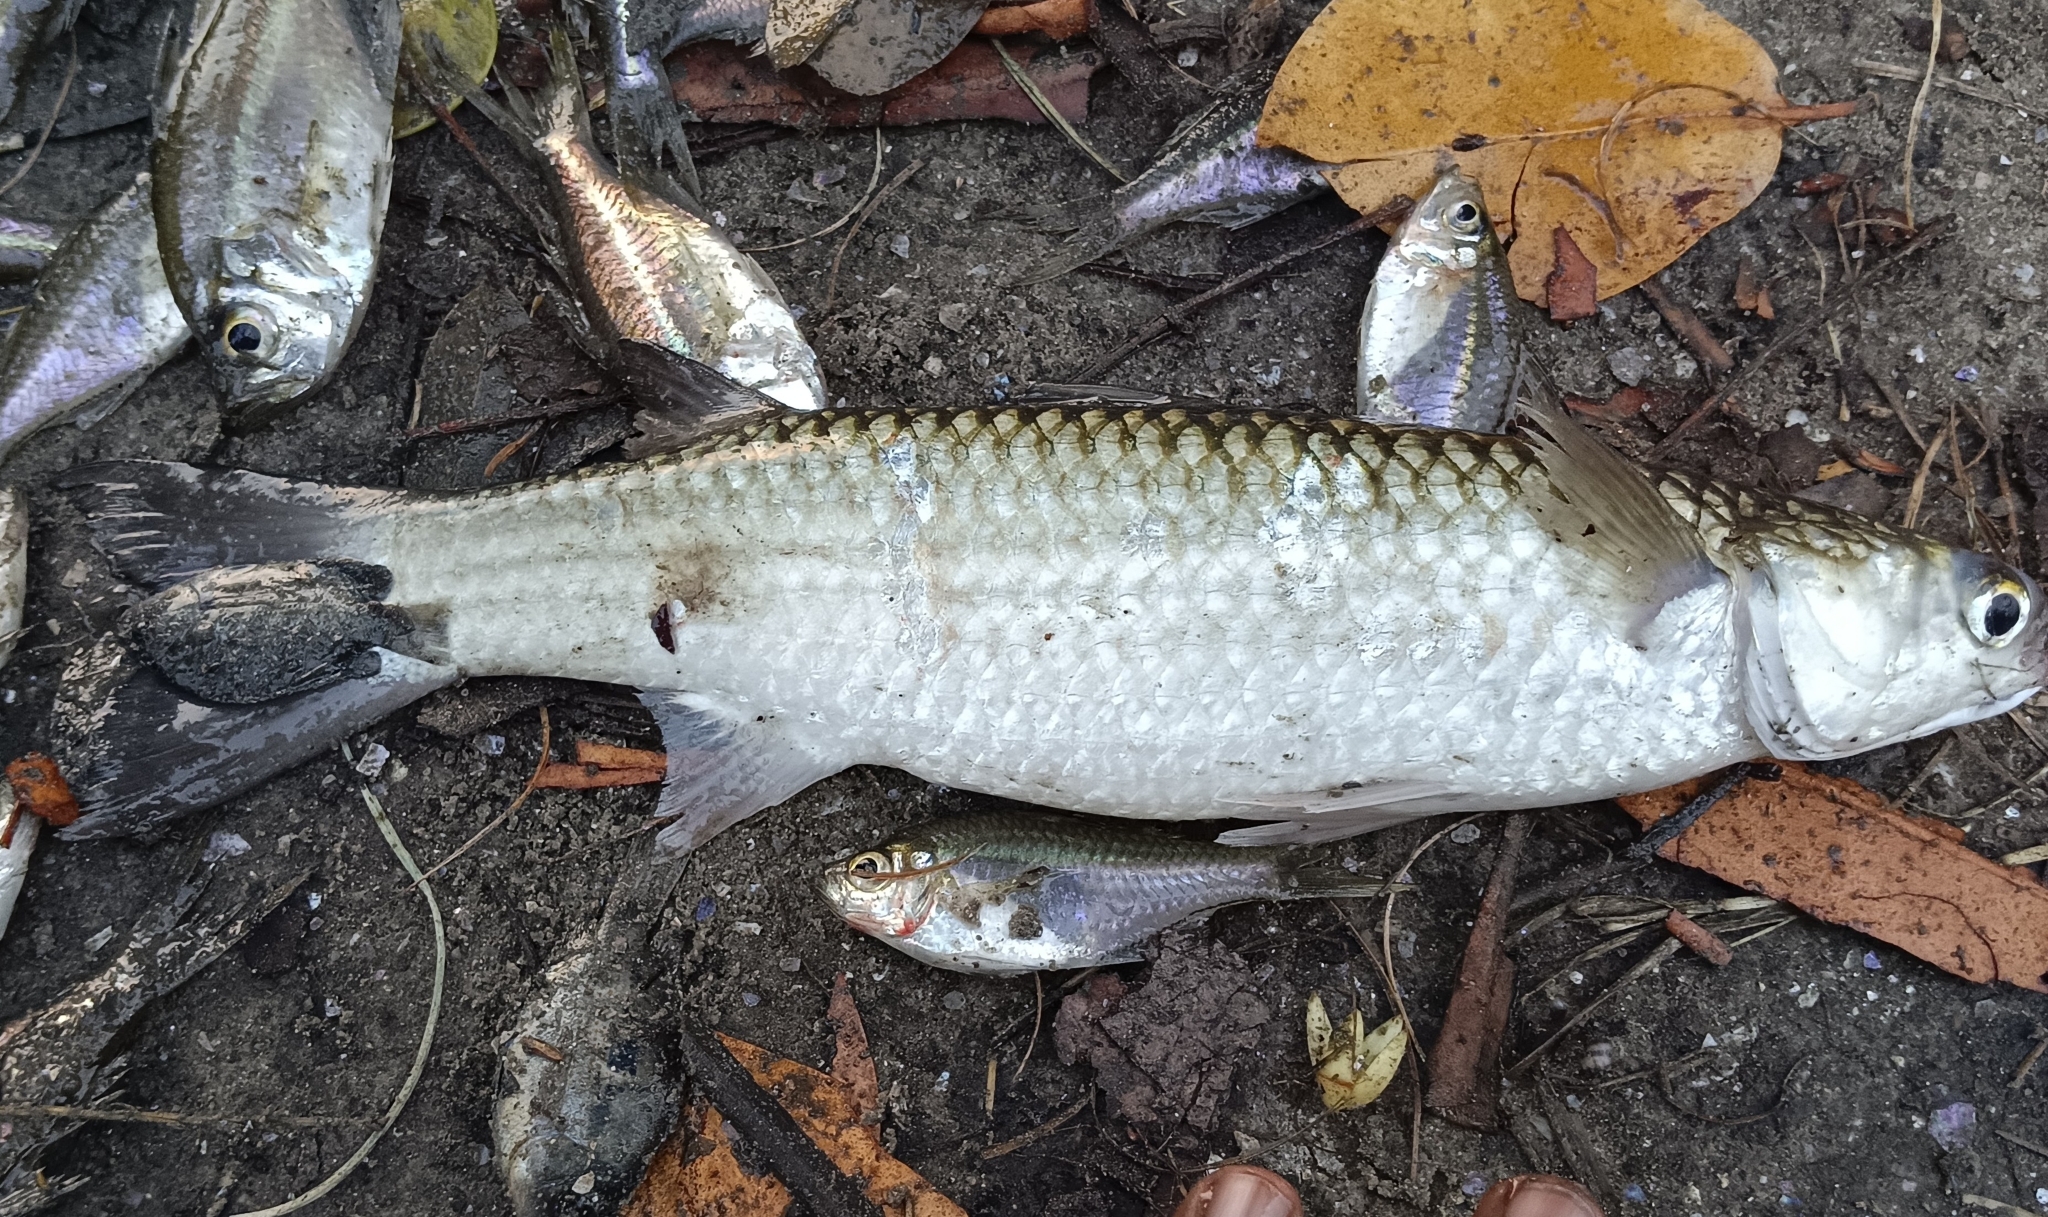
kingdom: Animalia
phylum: Chordata
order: Mugiliformes
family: Mugilidae
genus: Mugil
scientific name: Mugil cephalus
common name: Grey mullet
